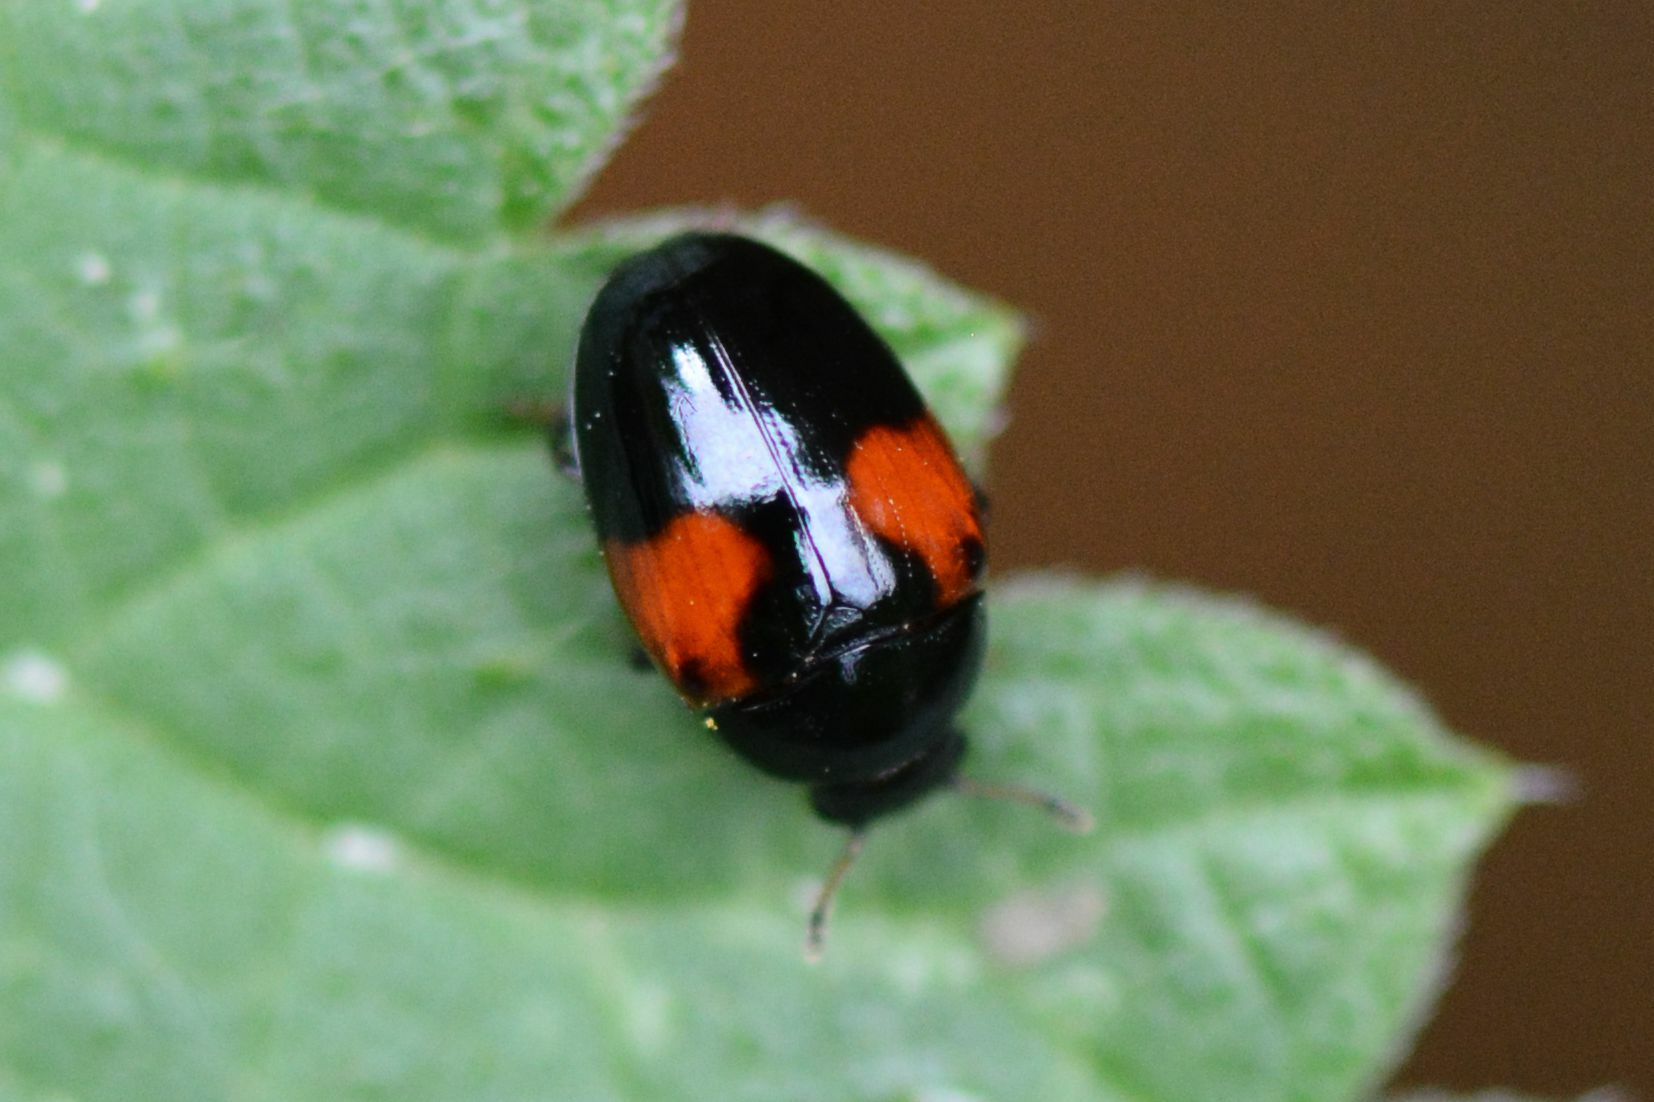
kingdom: Animalia
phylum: Arthropoda
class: Insecta
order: Coleoptera
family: Erotylidae
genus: Tritoma
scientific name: Tritoma bipustulata
